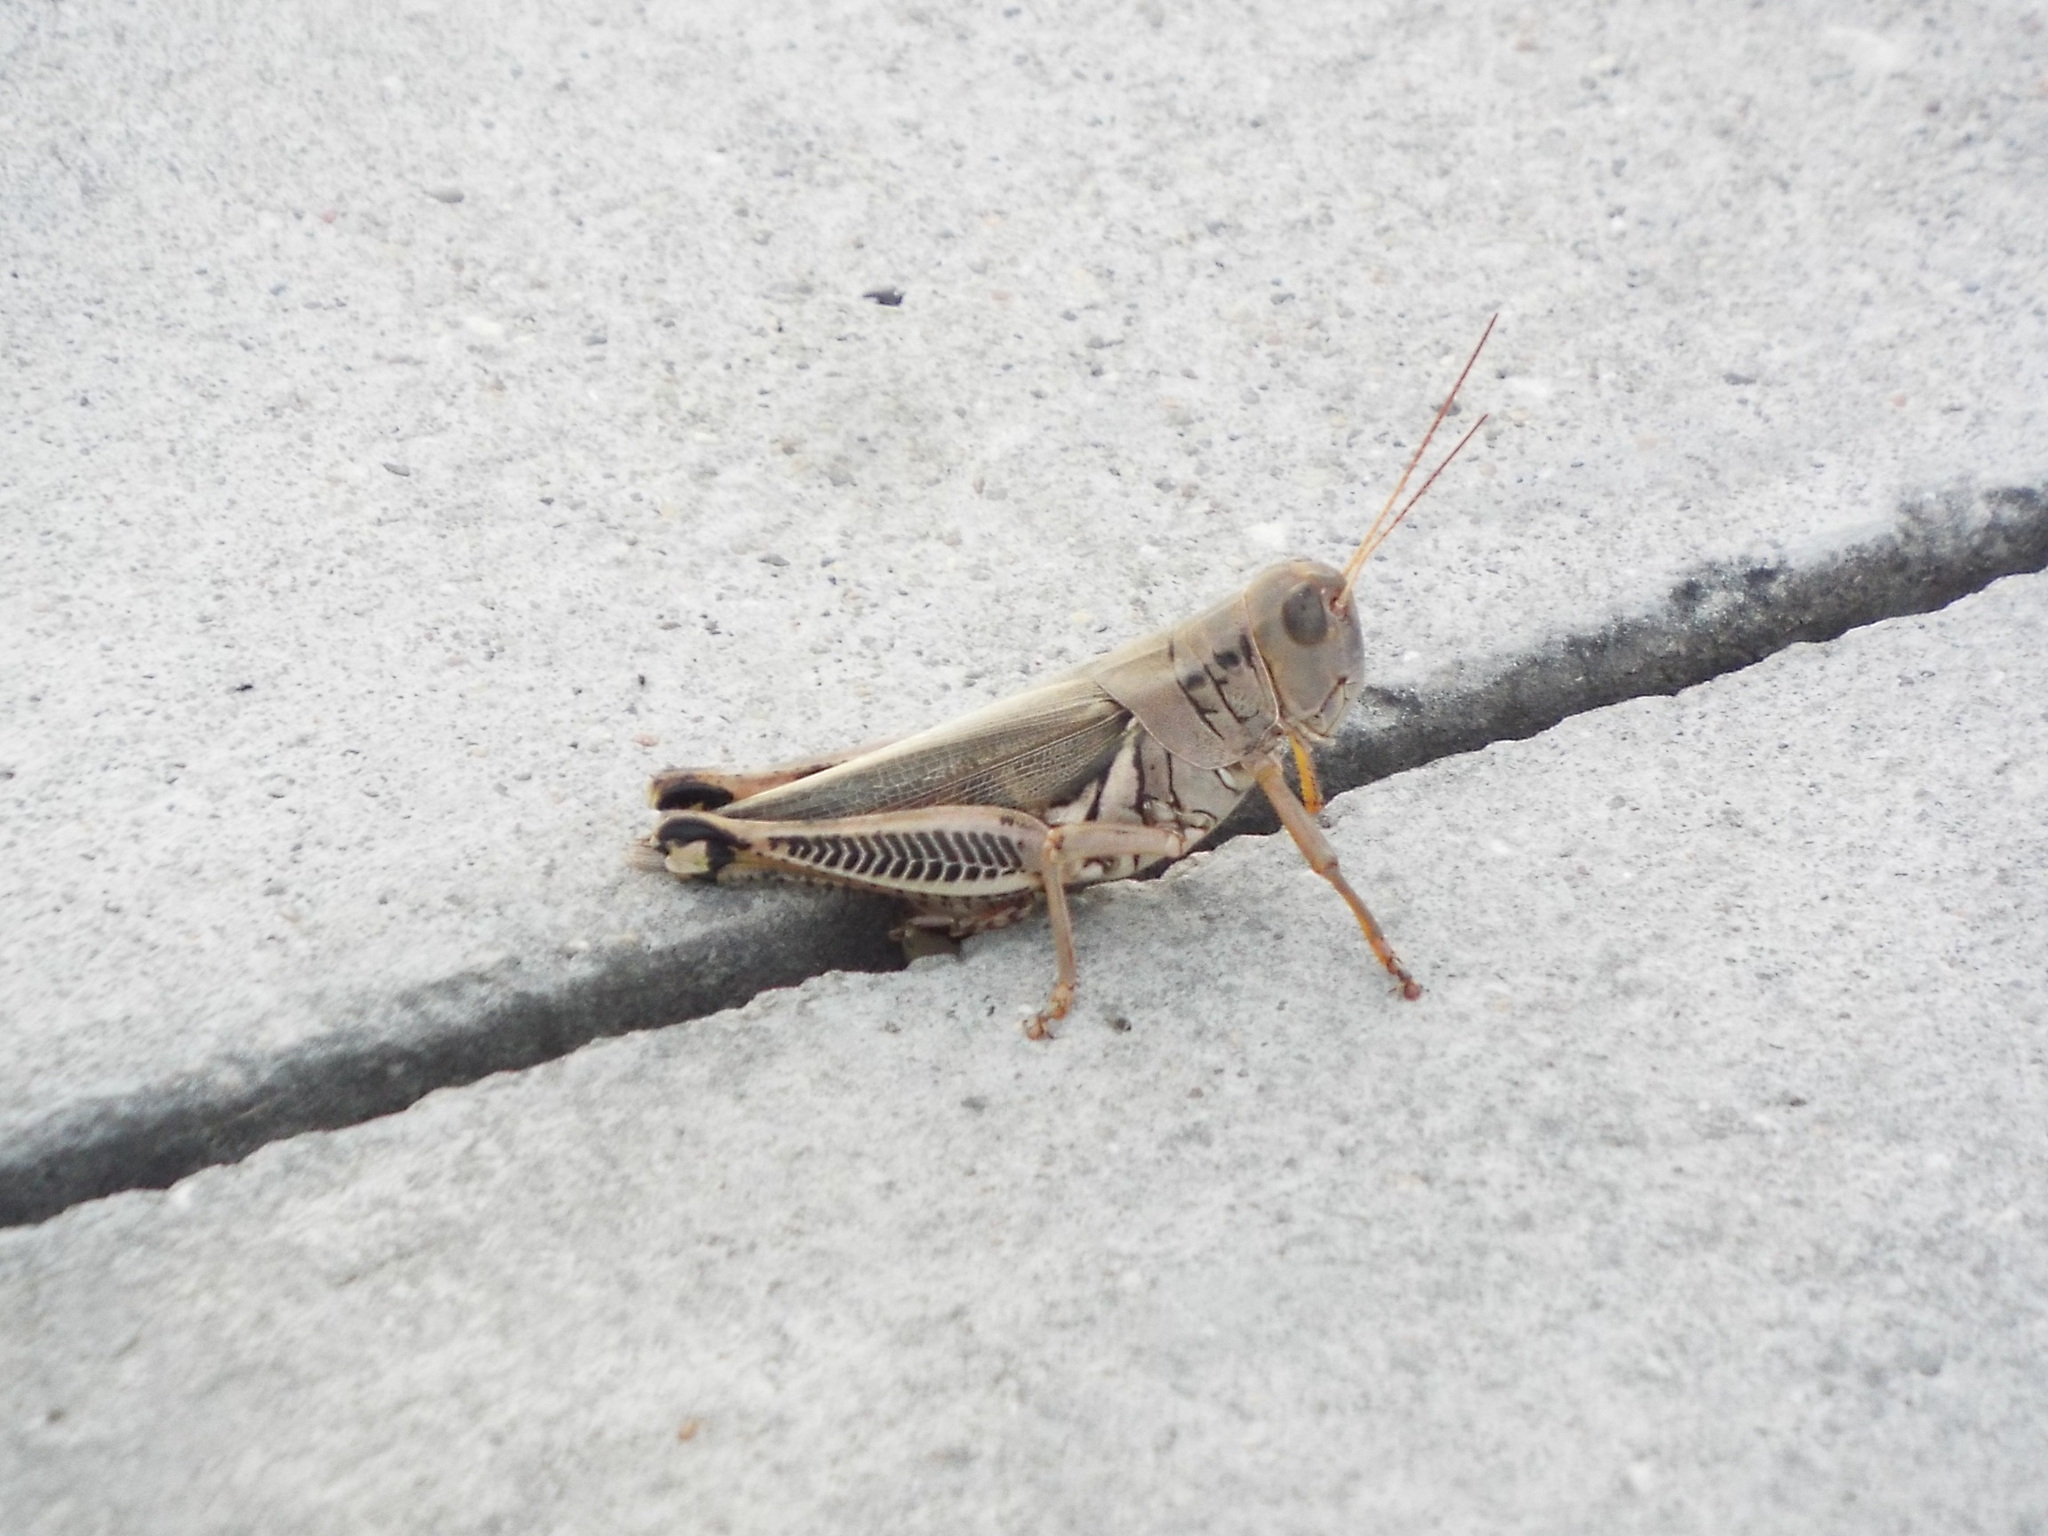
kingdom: Animalia
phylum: Arthropoda
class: Insecta
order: Orthoptera
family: Acrididae
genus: Melanoplus
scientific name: Melanoplus differentialis
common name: Differential grasshopper
